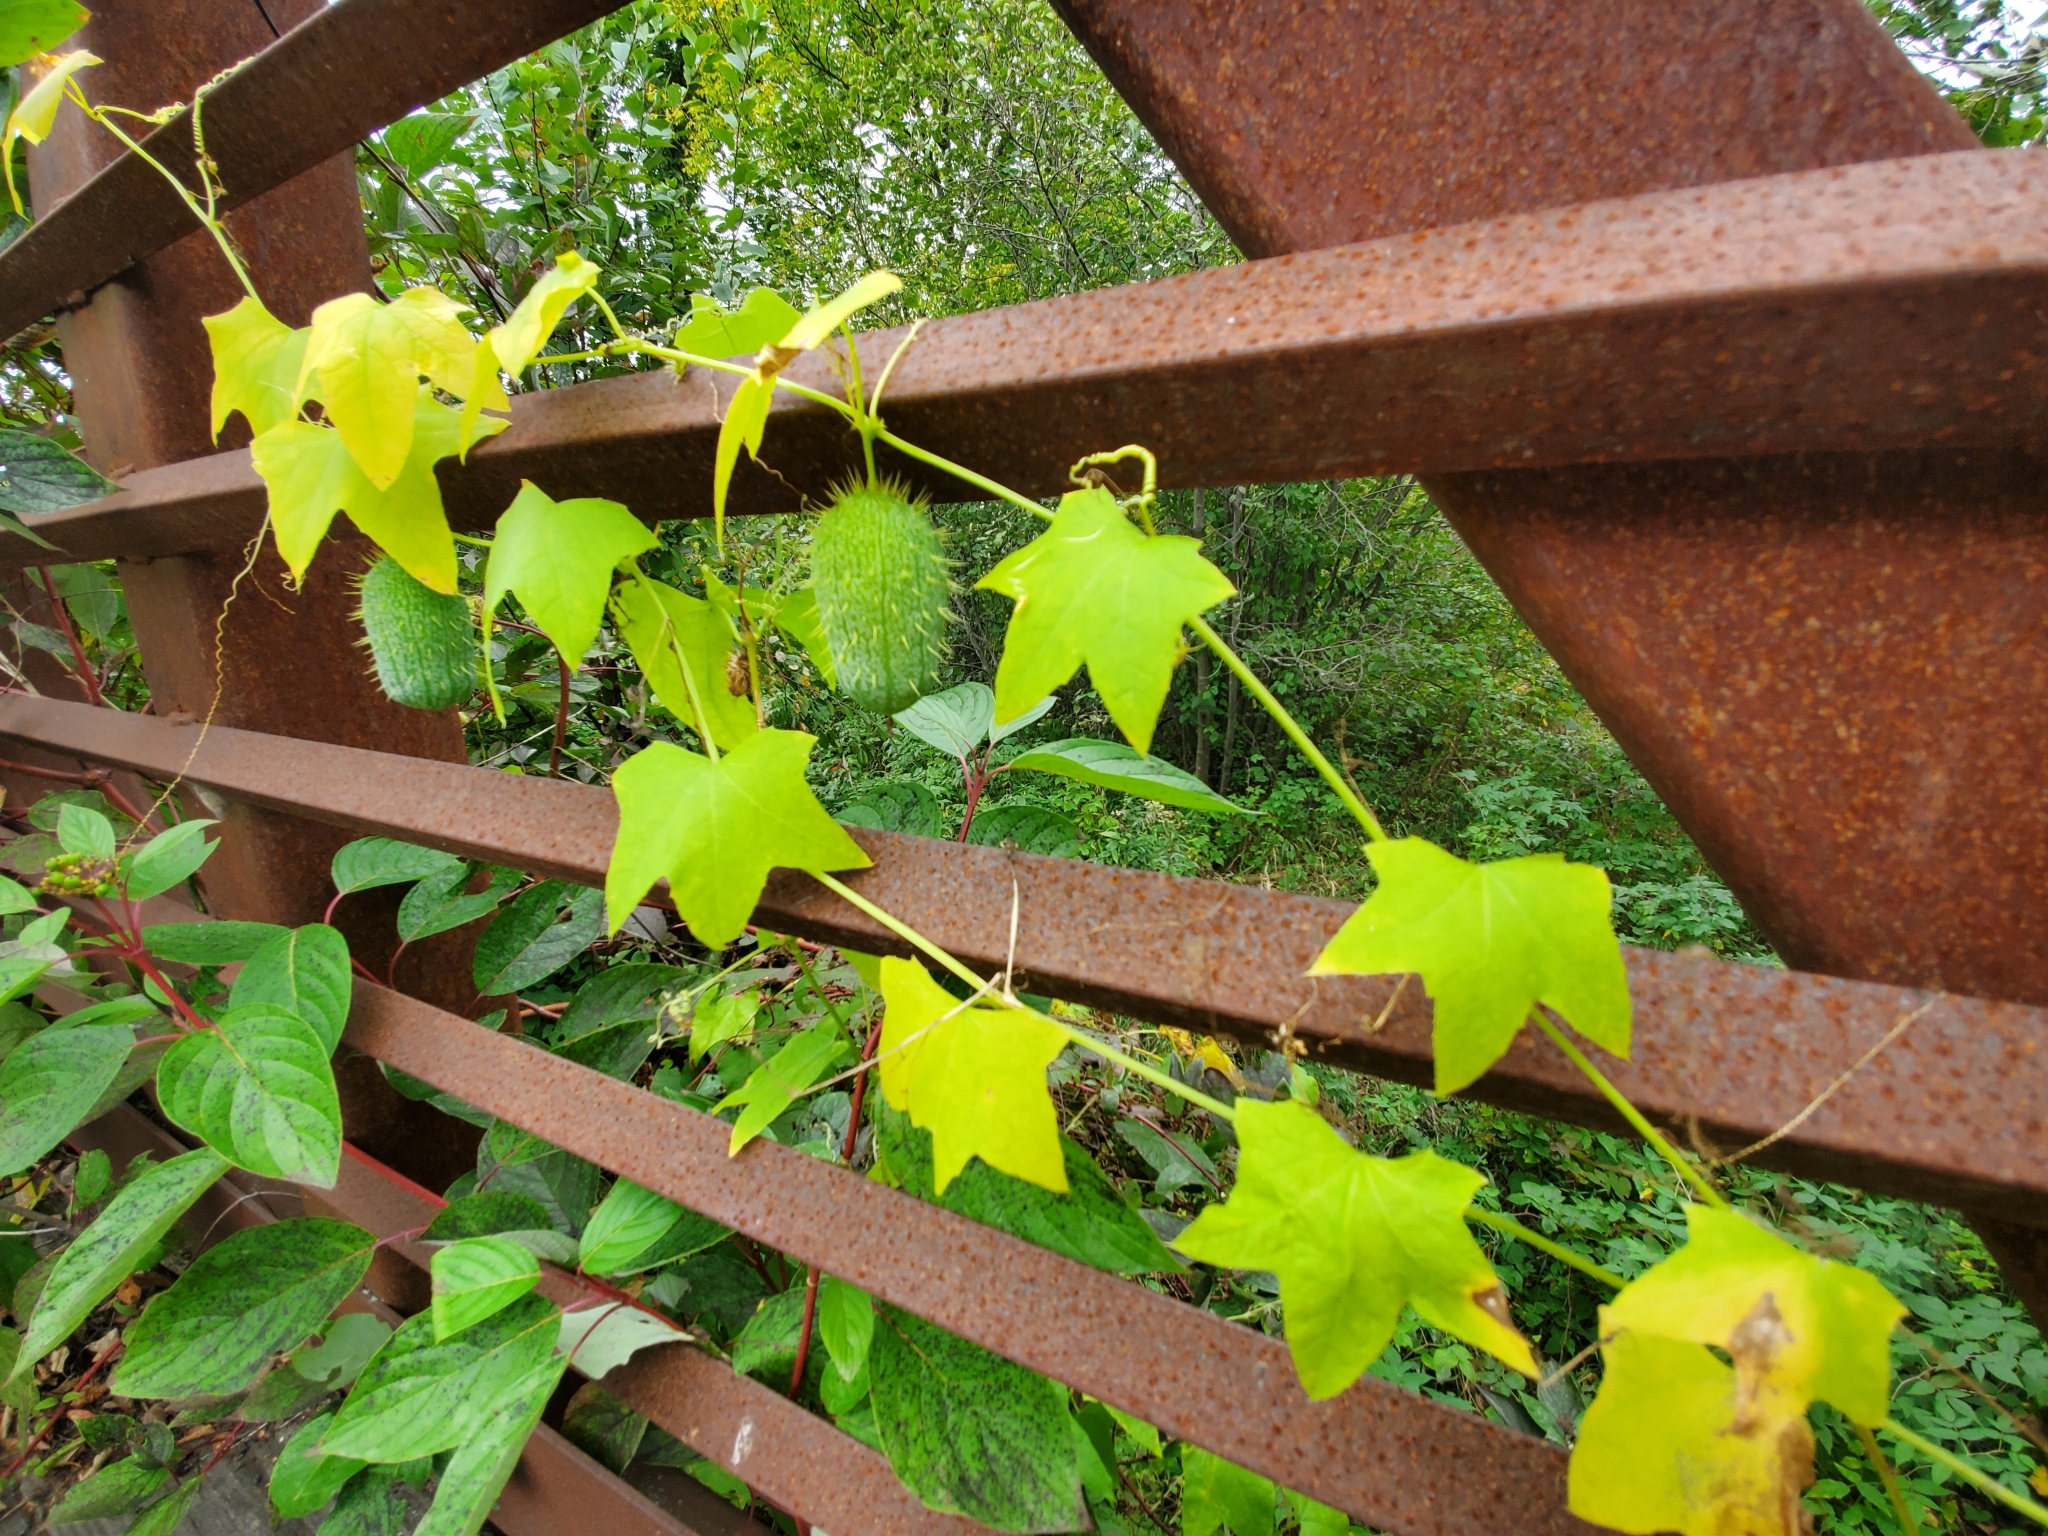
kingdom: Plantae
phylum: Tracheophyta
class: Magnoliopsida
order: Cucurbitales
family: Cucurbitaceae
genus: Echinocystis
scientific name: Echinocystis lobata
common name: Wild cucumber
